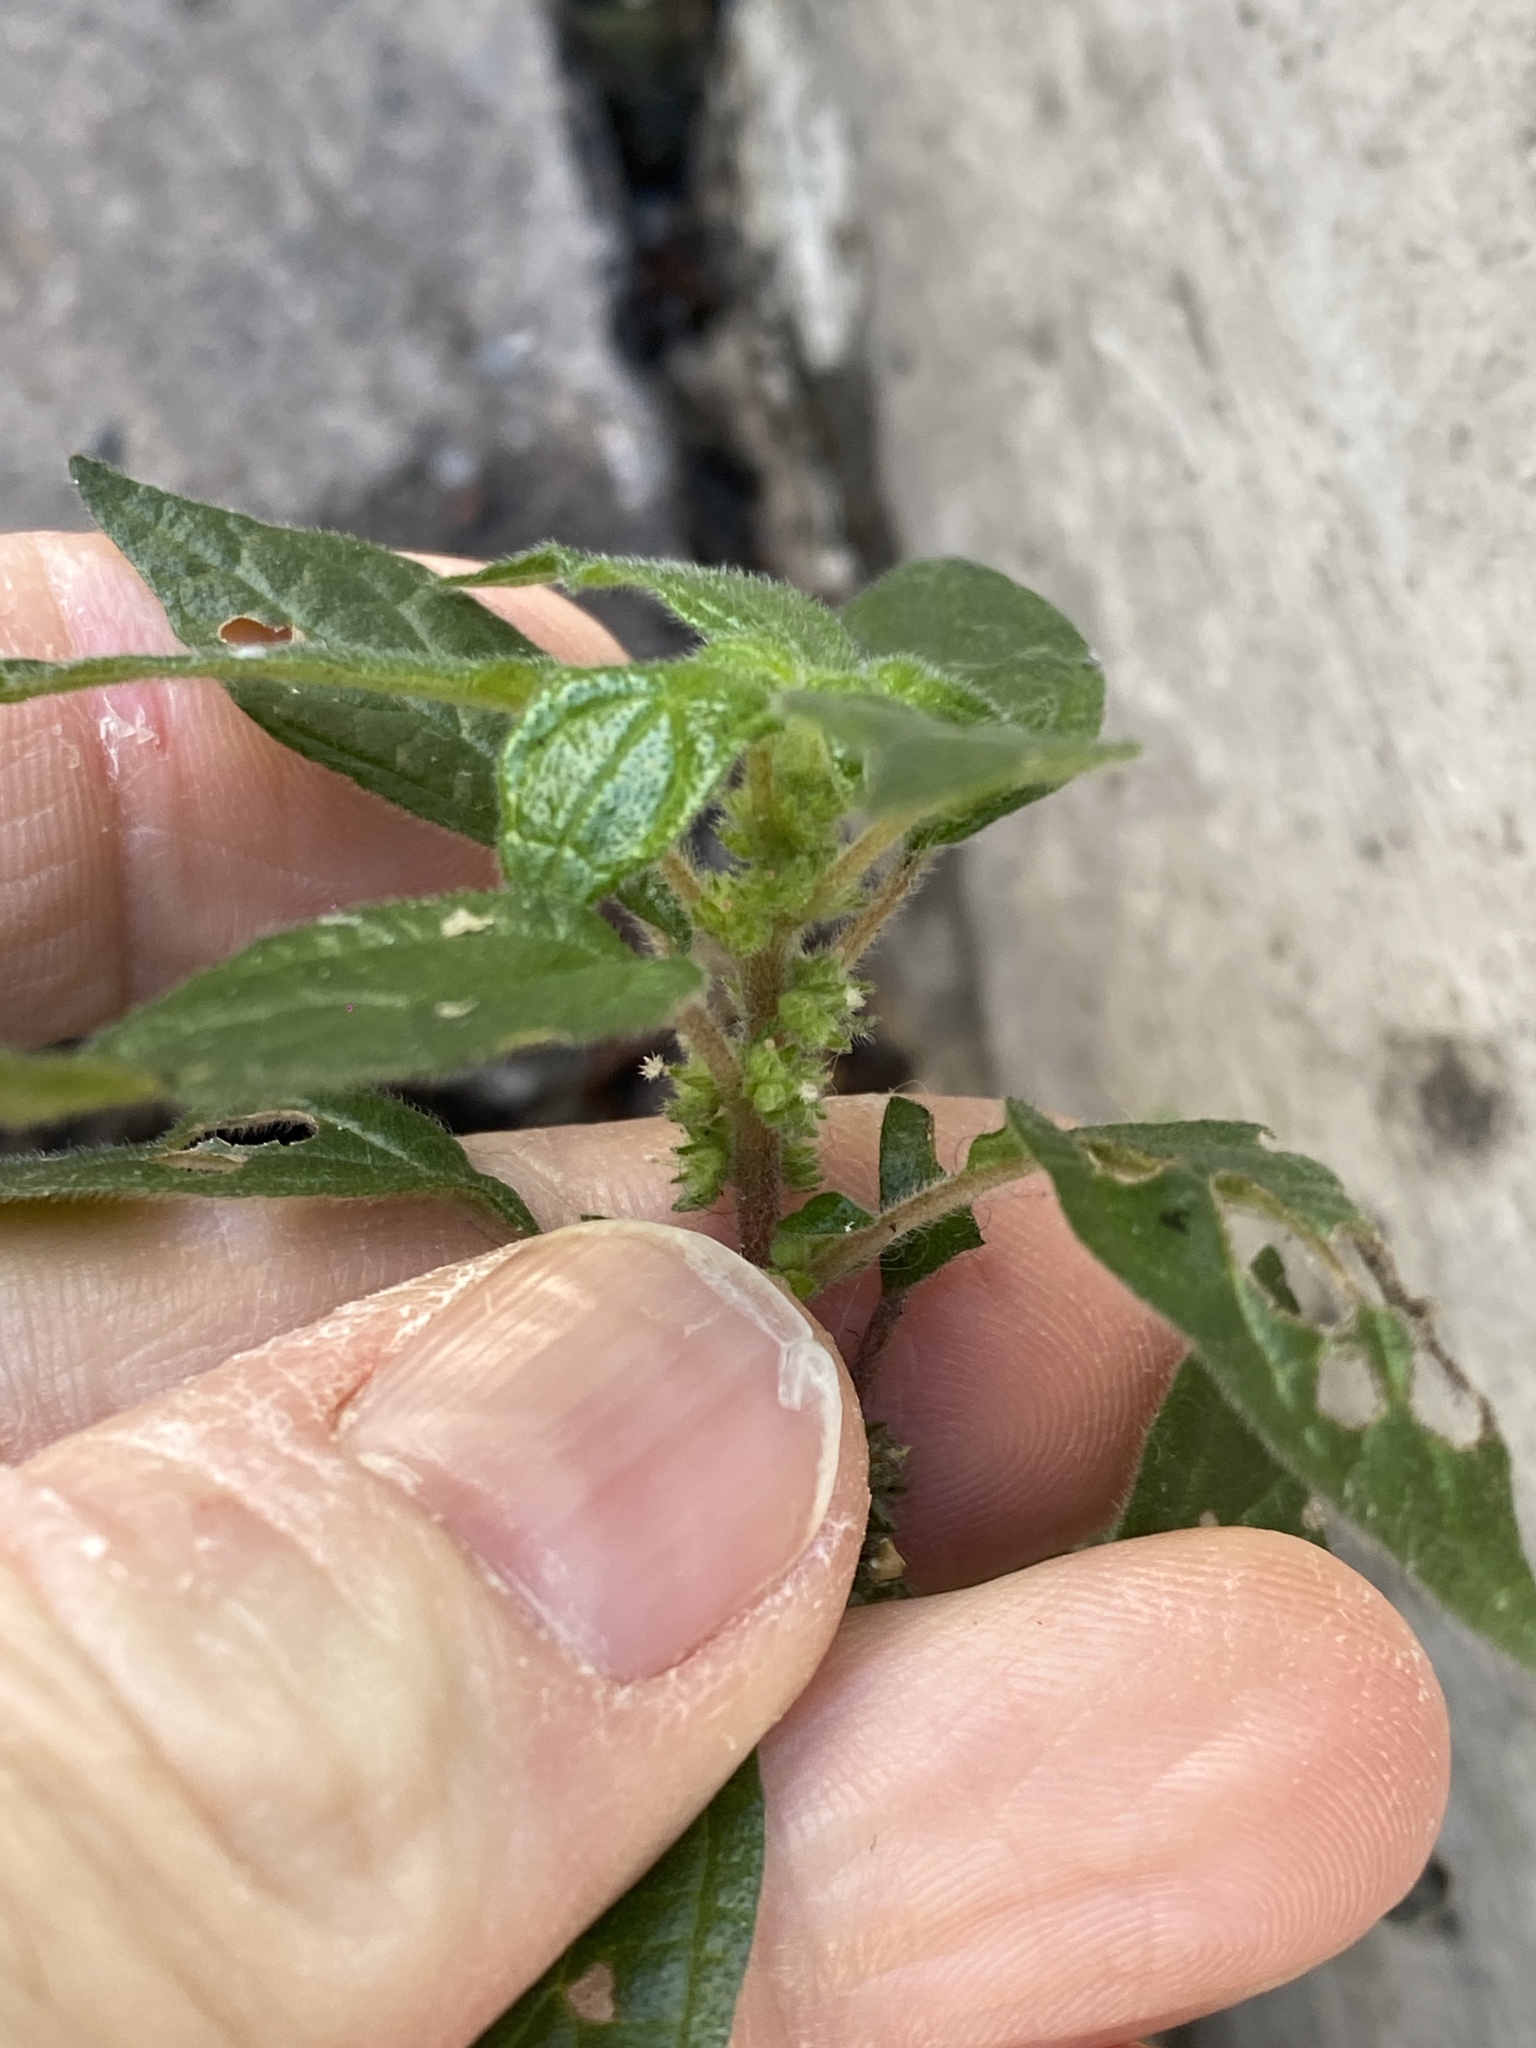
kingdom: Plantae
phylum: Tracheophyta
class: Magnoliopsida
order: Rosales
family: Urticaceae
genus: Parietaria
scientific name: Parietaria judaica
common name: Pellitory-of-the-wall
